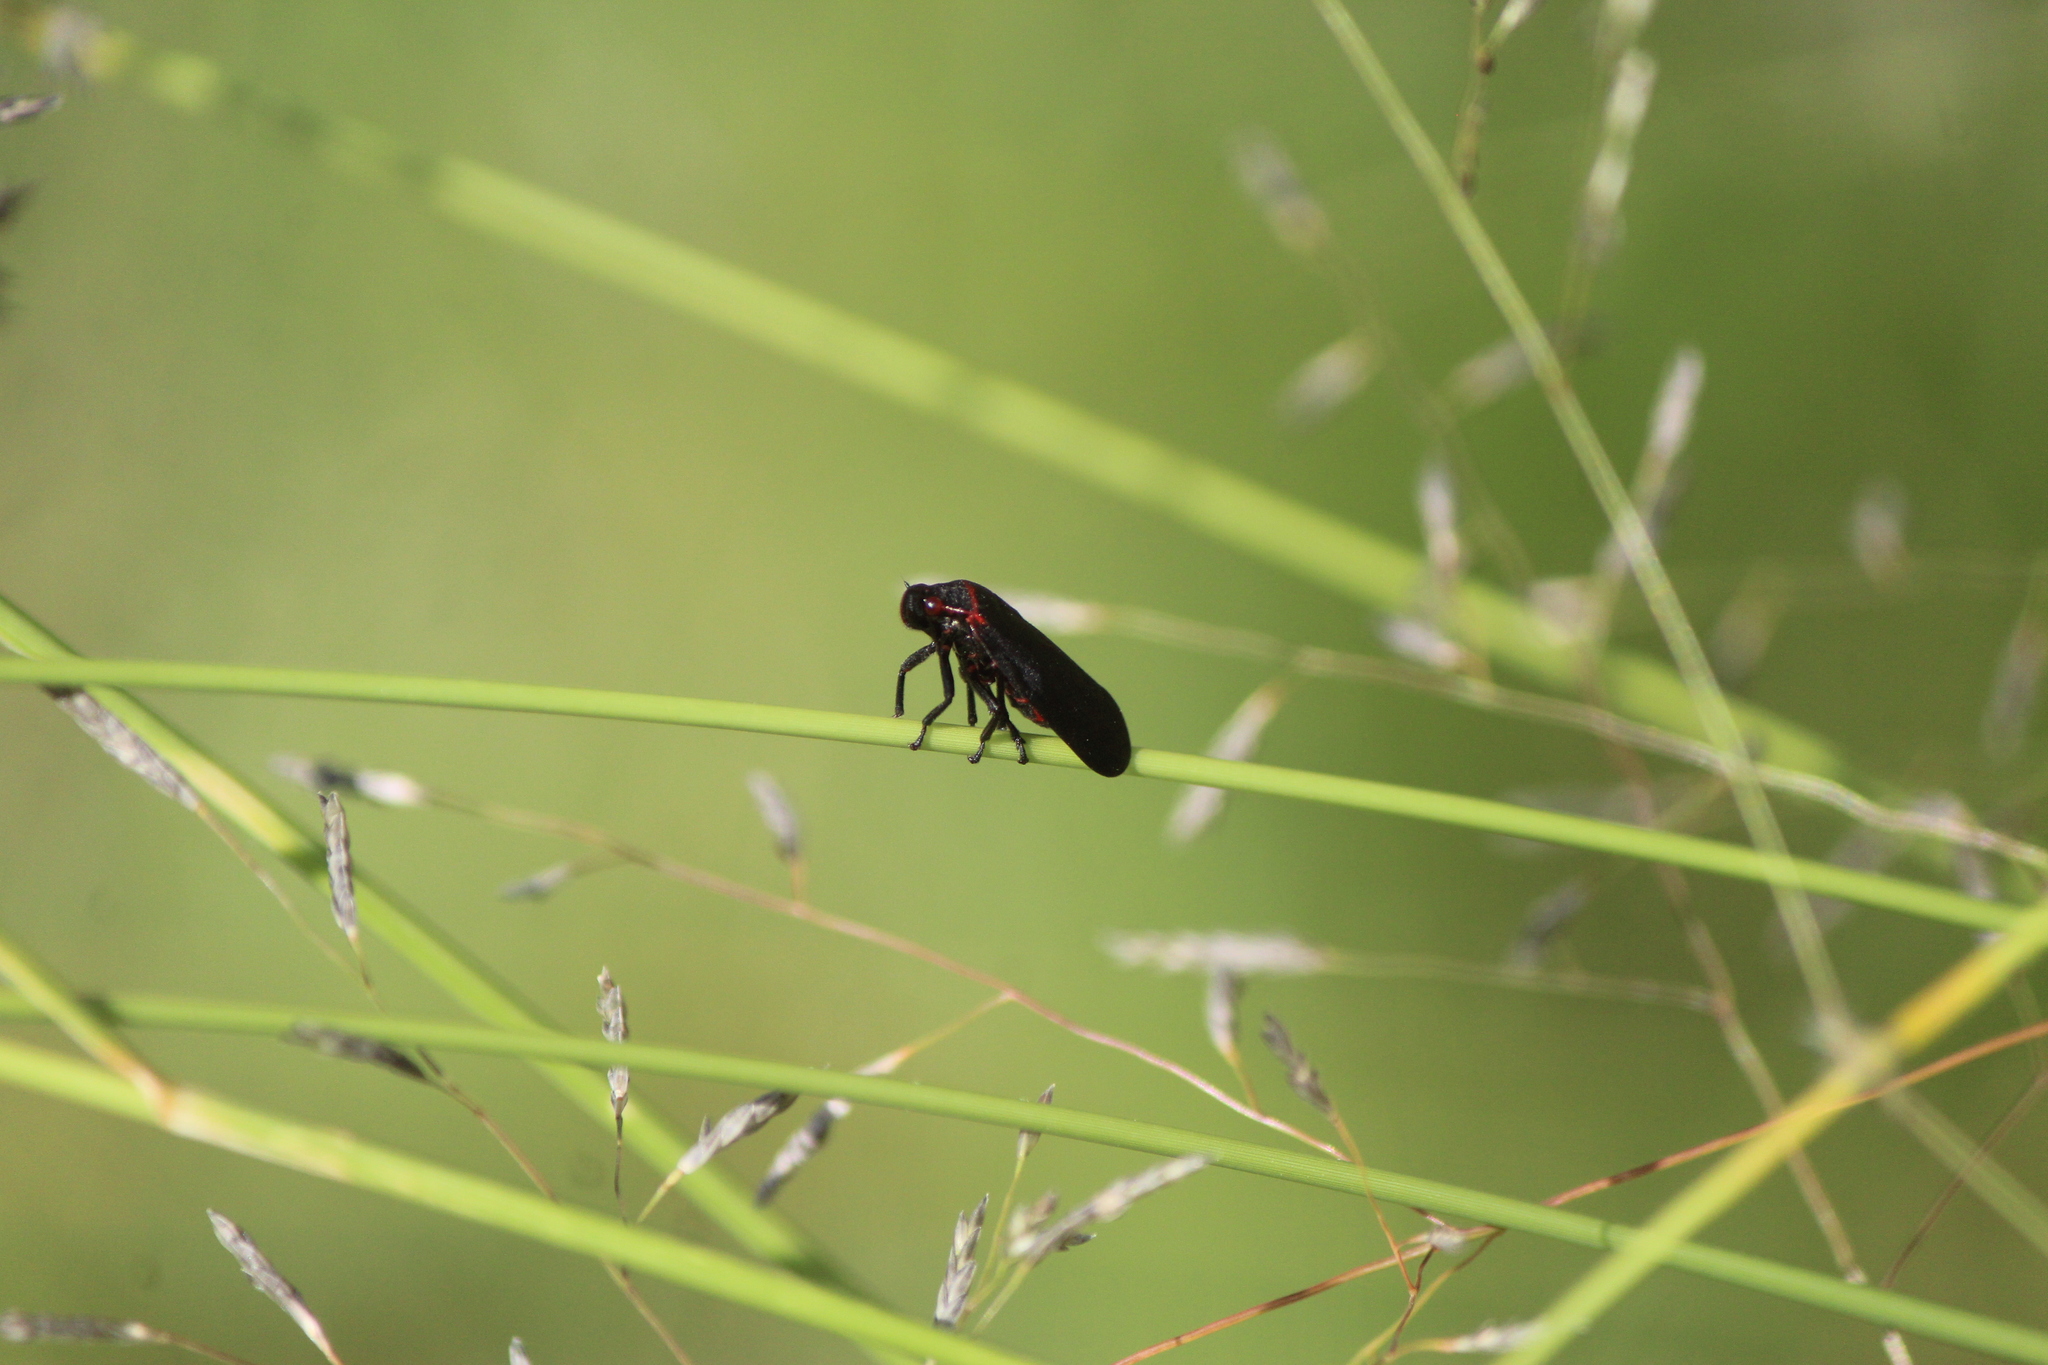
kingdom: Animalia
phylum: Arthropoda
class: Insecta
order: Hemiptera
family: Cercopidae
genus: Prosapia
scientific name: Prosapia
